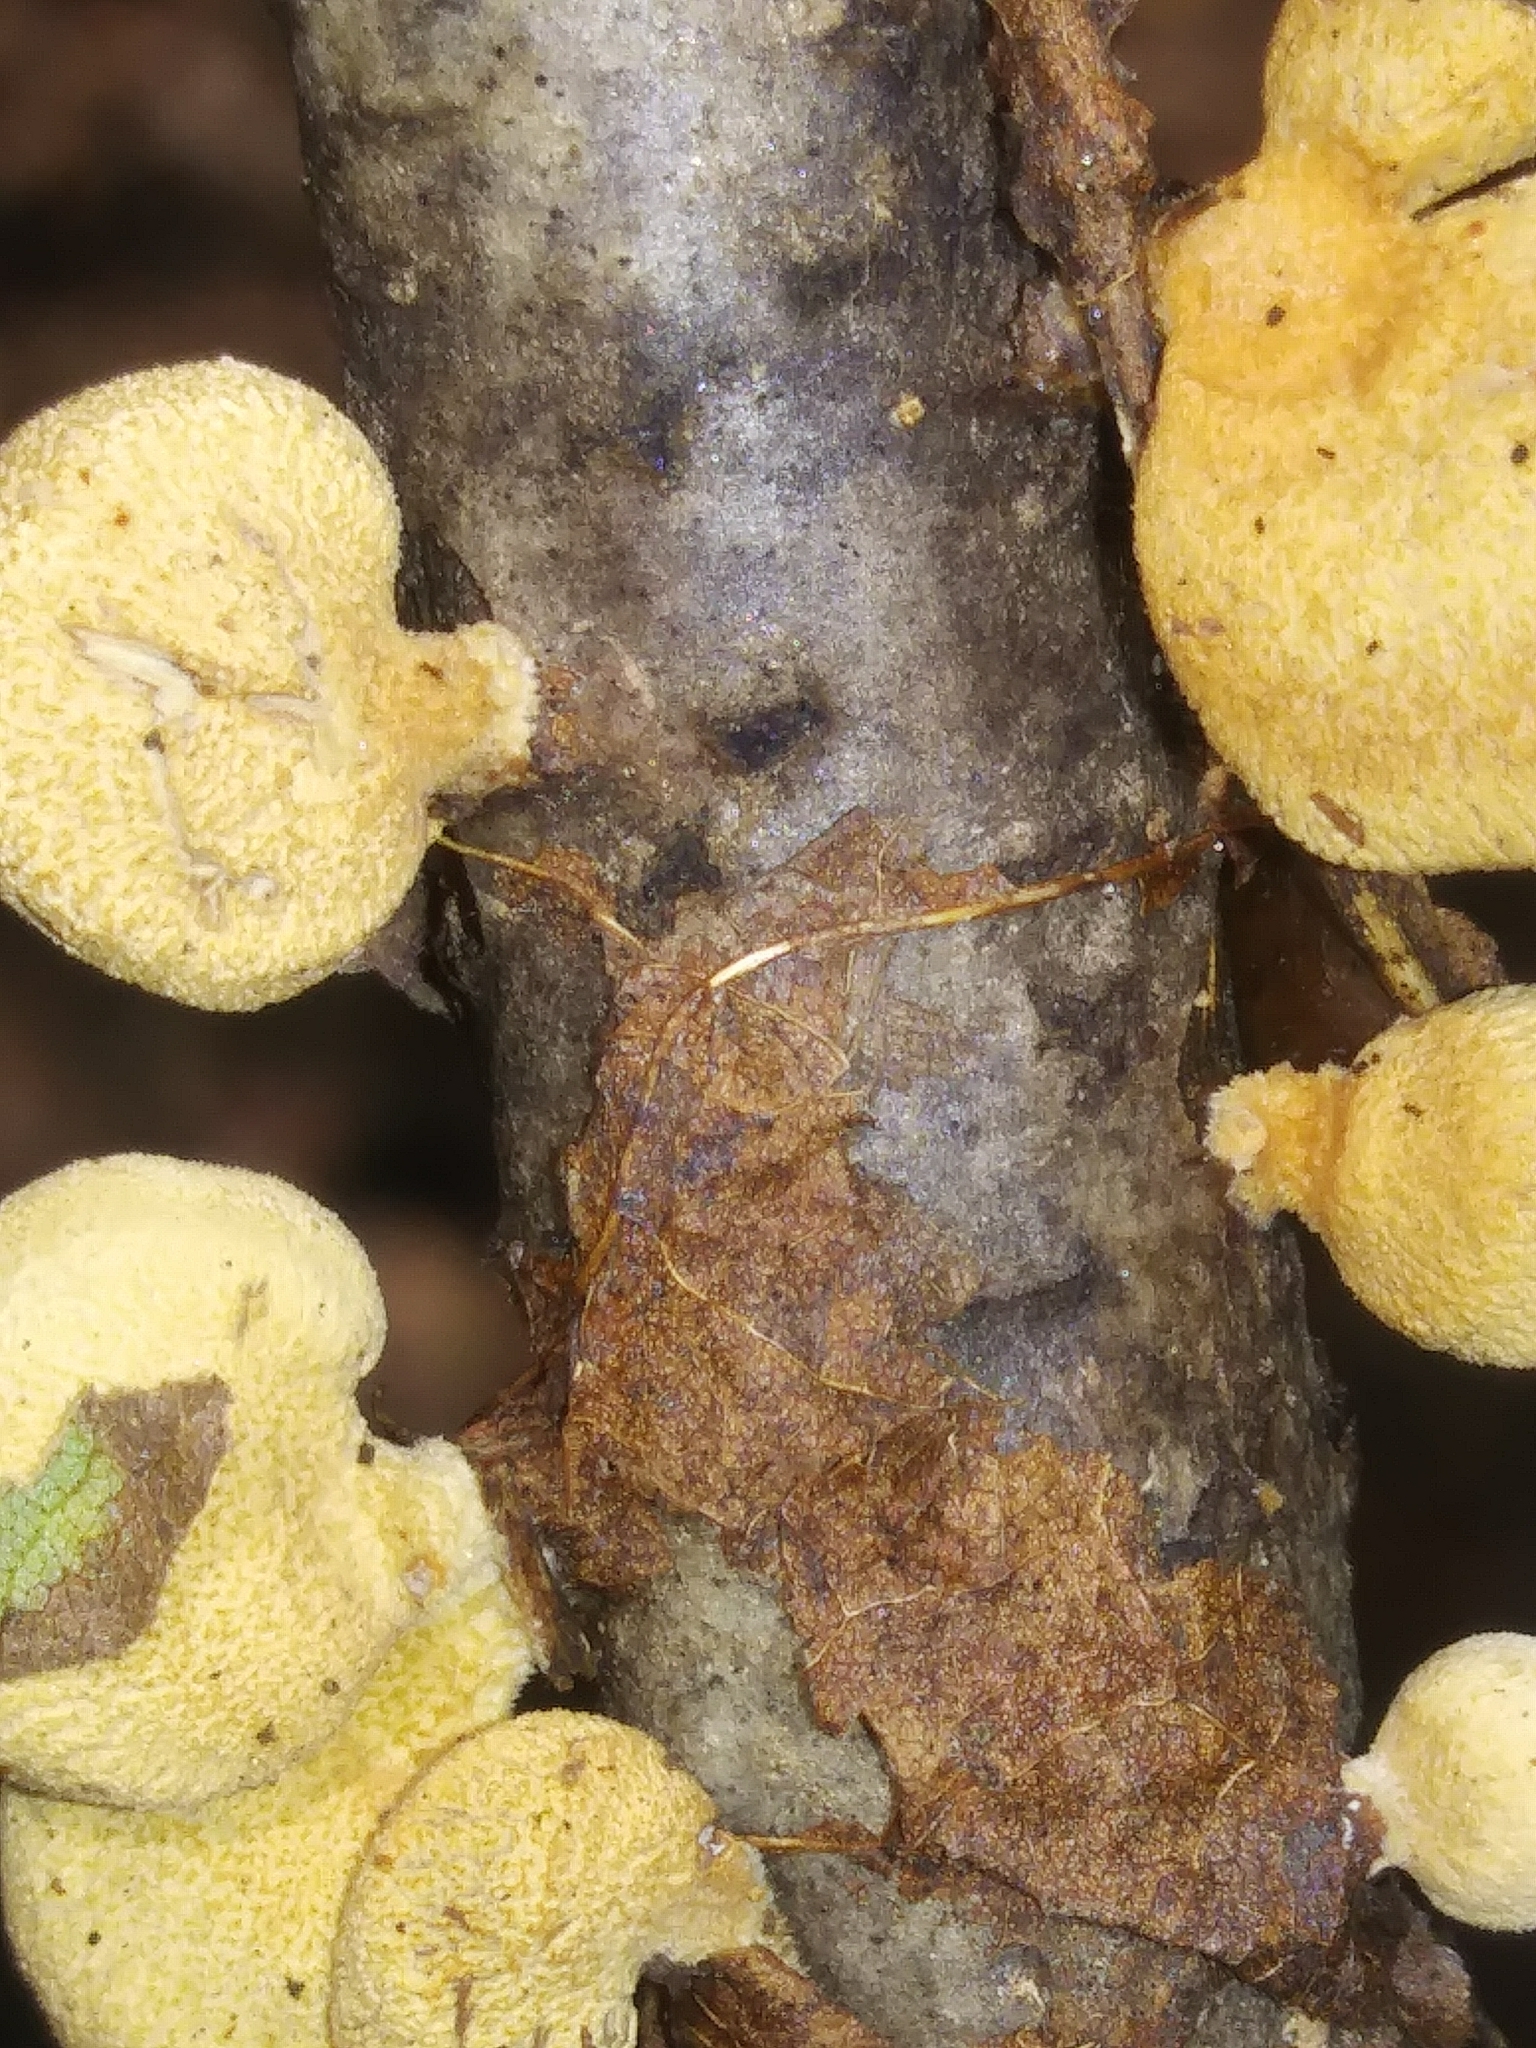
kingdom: Fungi
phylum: Basidiomycota
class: Agaricomycetes
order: Agaricales
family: Mycenaceae
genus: Panellus
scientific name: Panellus stipticus
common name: Bitter oysterling
